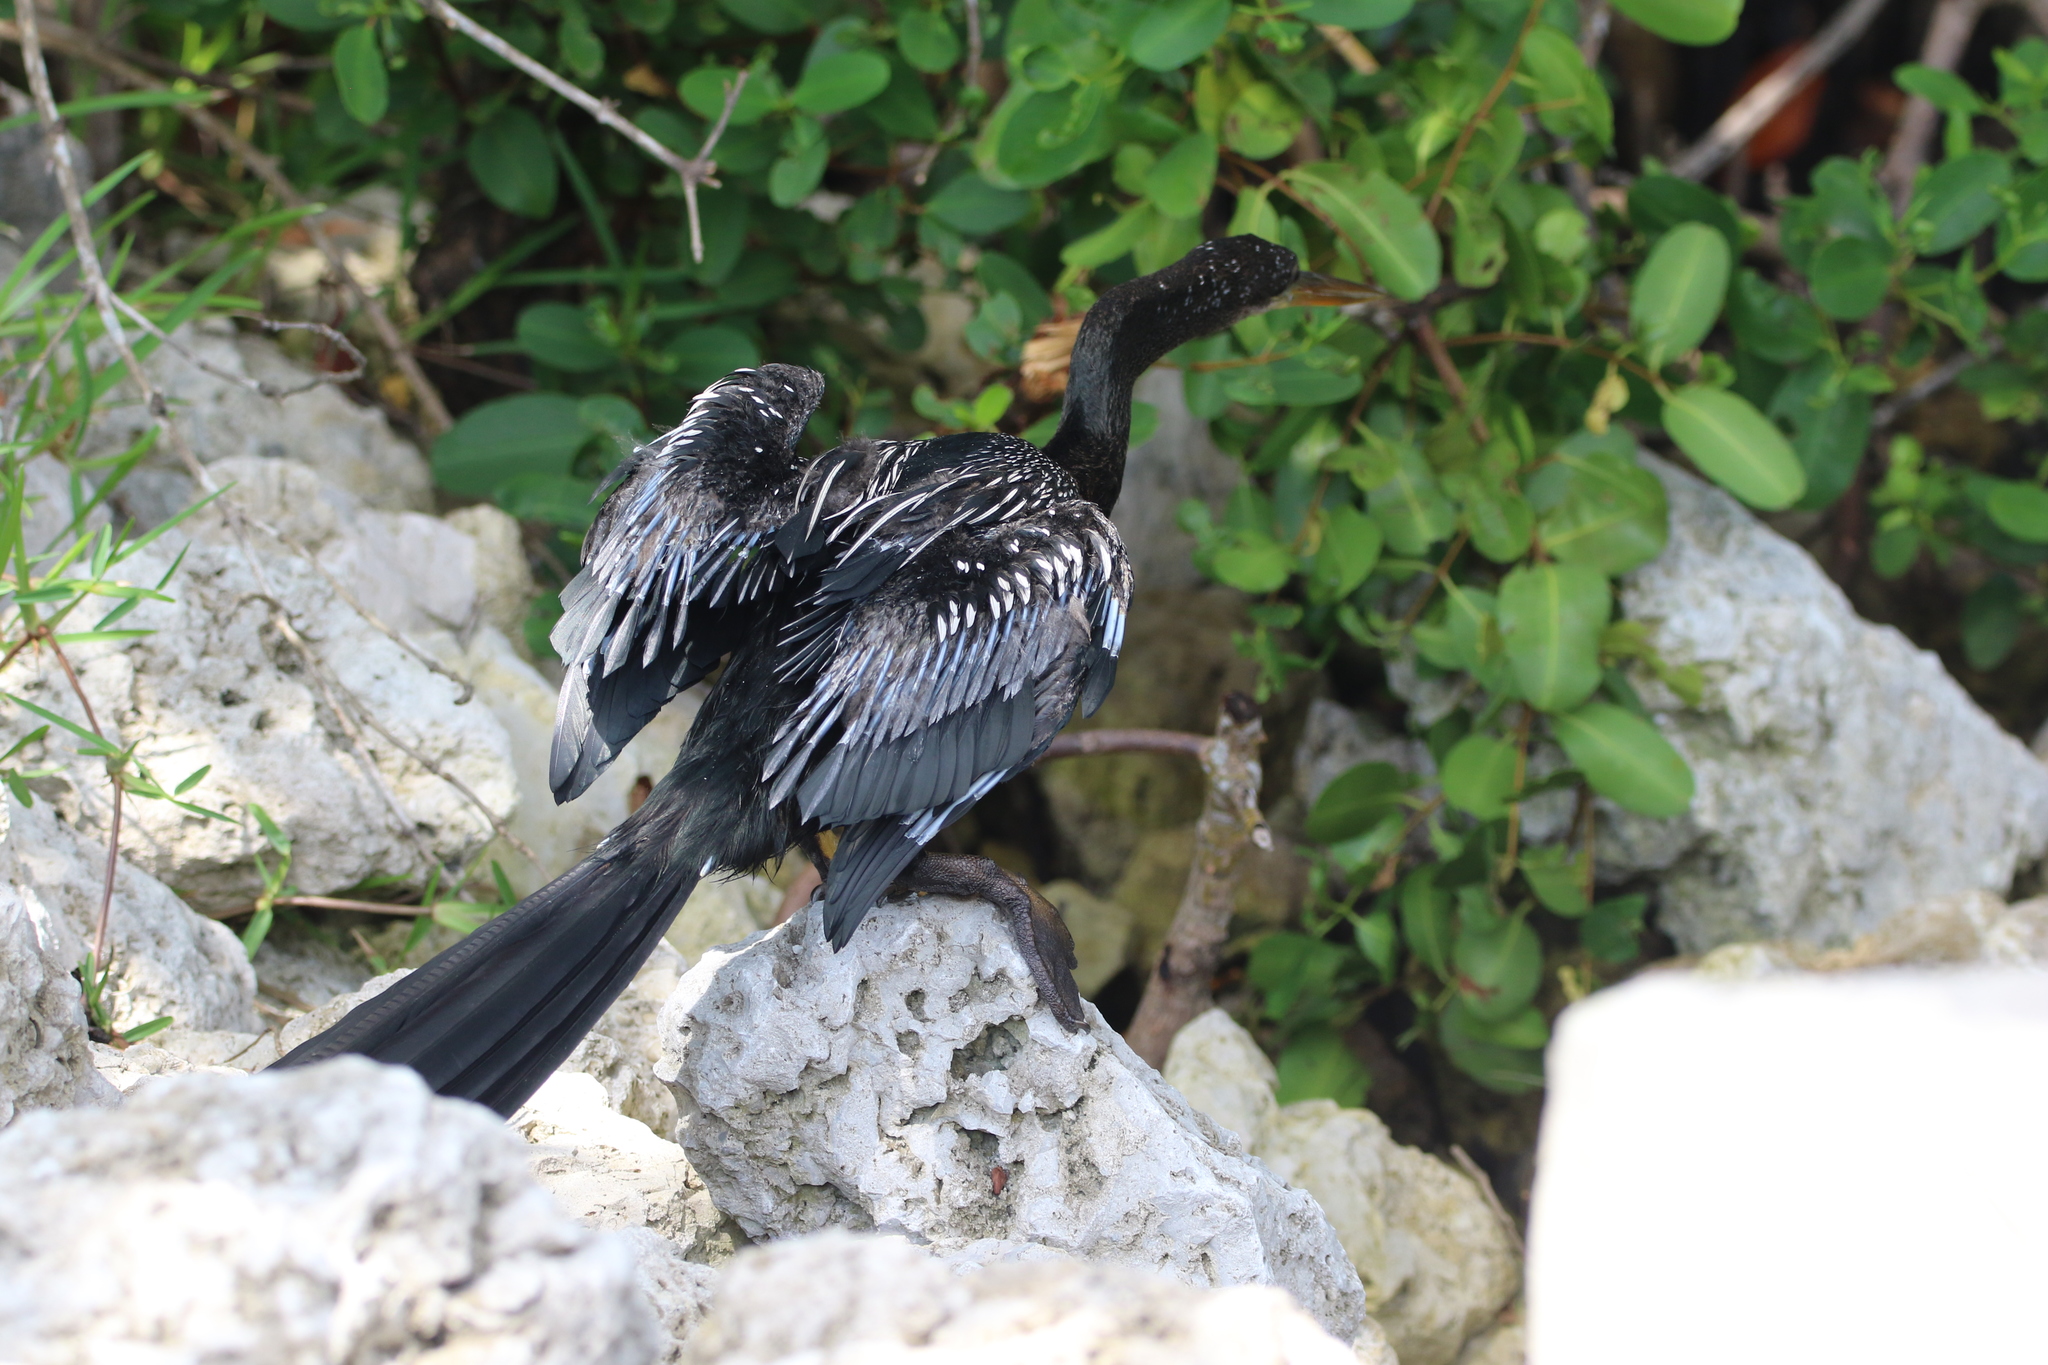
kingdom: Animalia
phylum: Chordata
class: Aves
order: Suliformes
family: Anhingidae
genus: Anhinga
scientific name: Anhinga anhinga
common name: Anhinga
